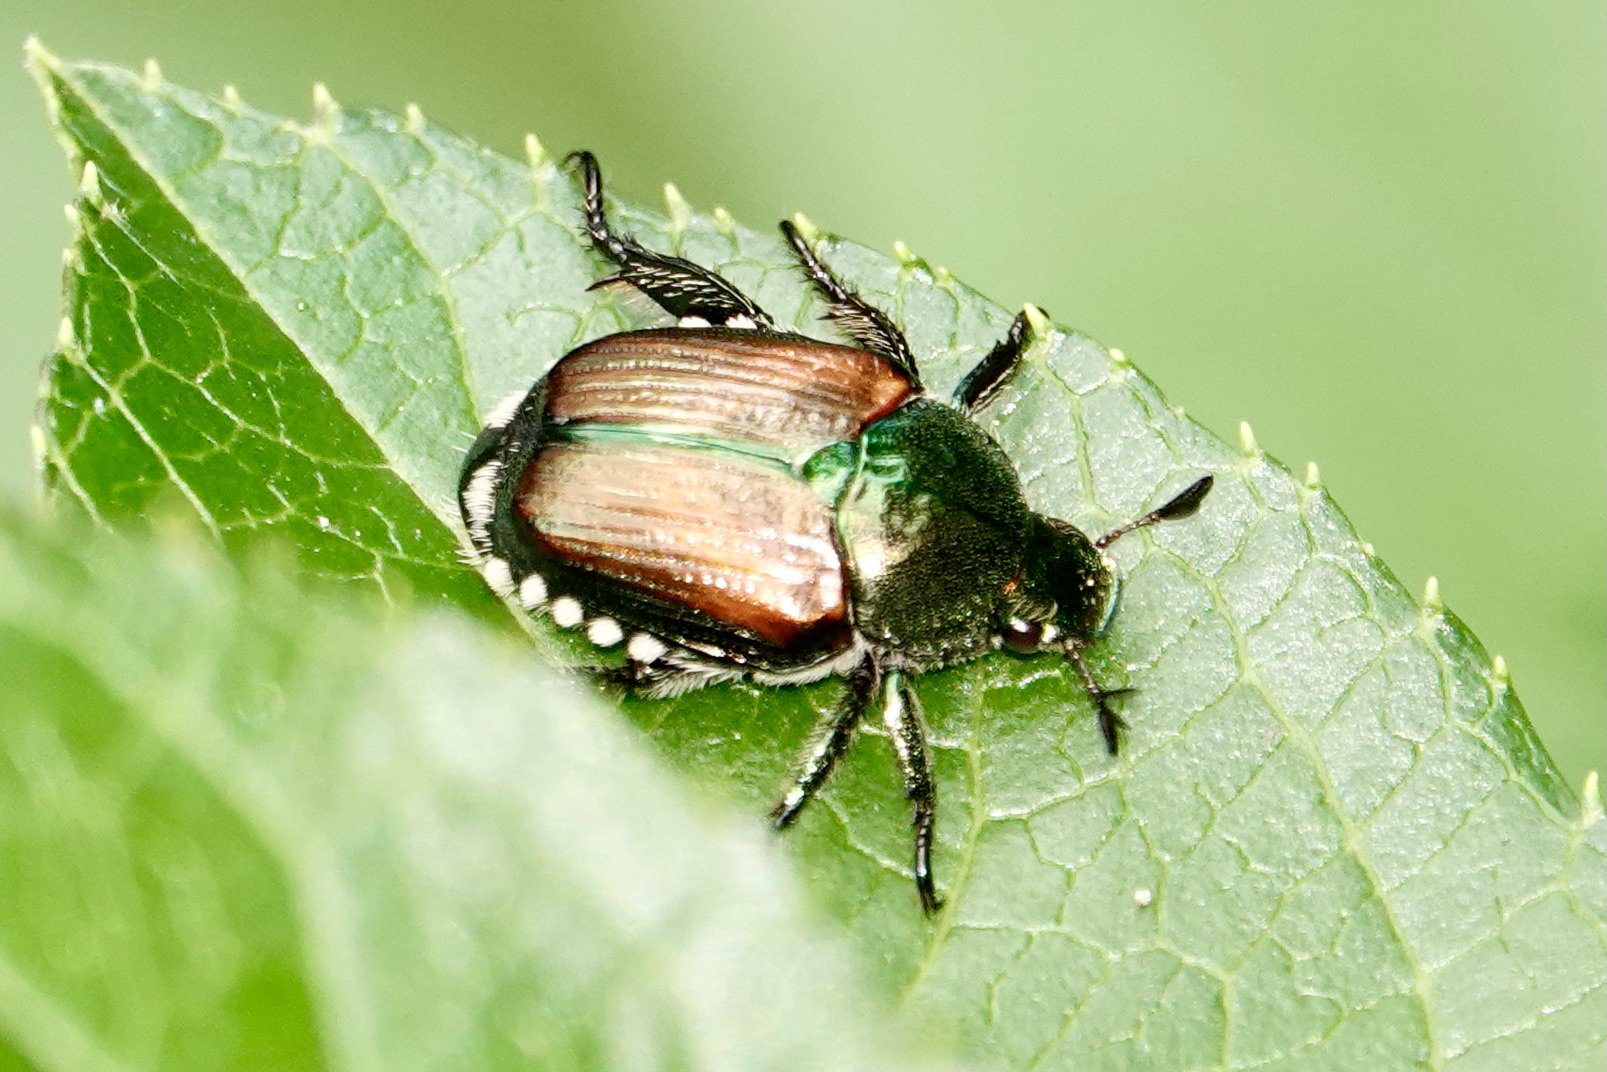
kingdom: Animalia
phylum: Arthropoda
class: Insecta
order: Coleoptera
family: Scarabaeidae
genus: Popillia
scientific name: Popillia japonica
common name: Japanese beetle
